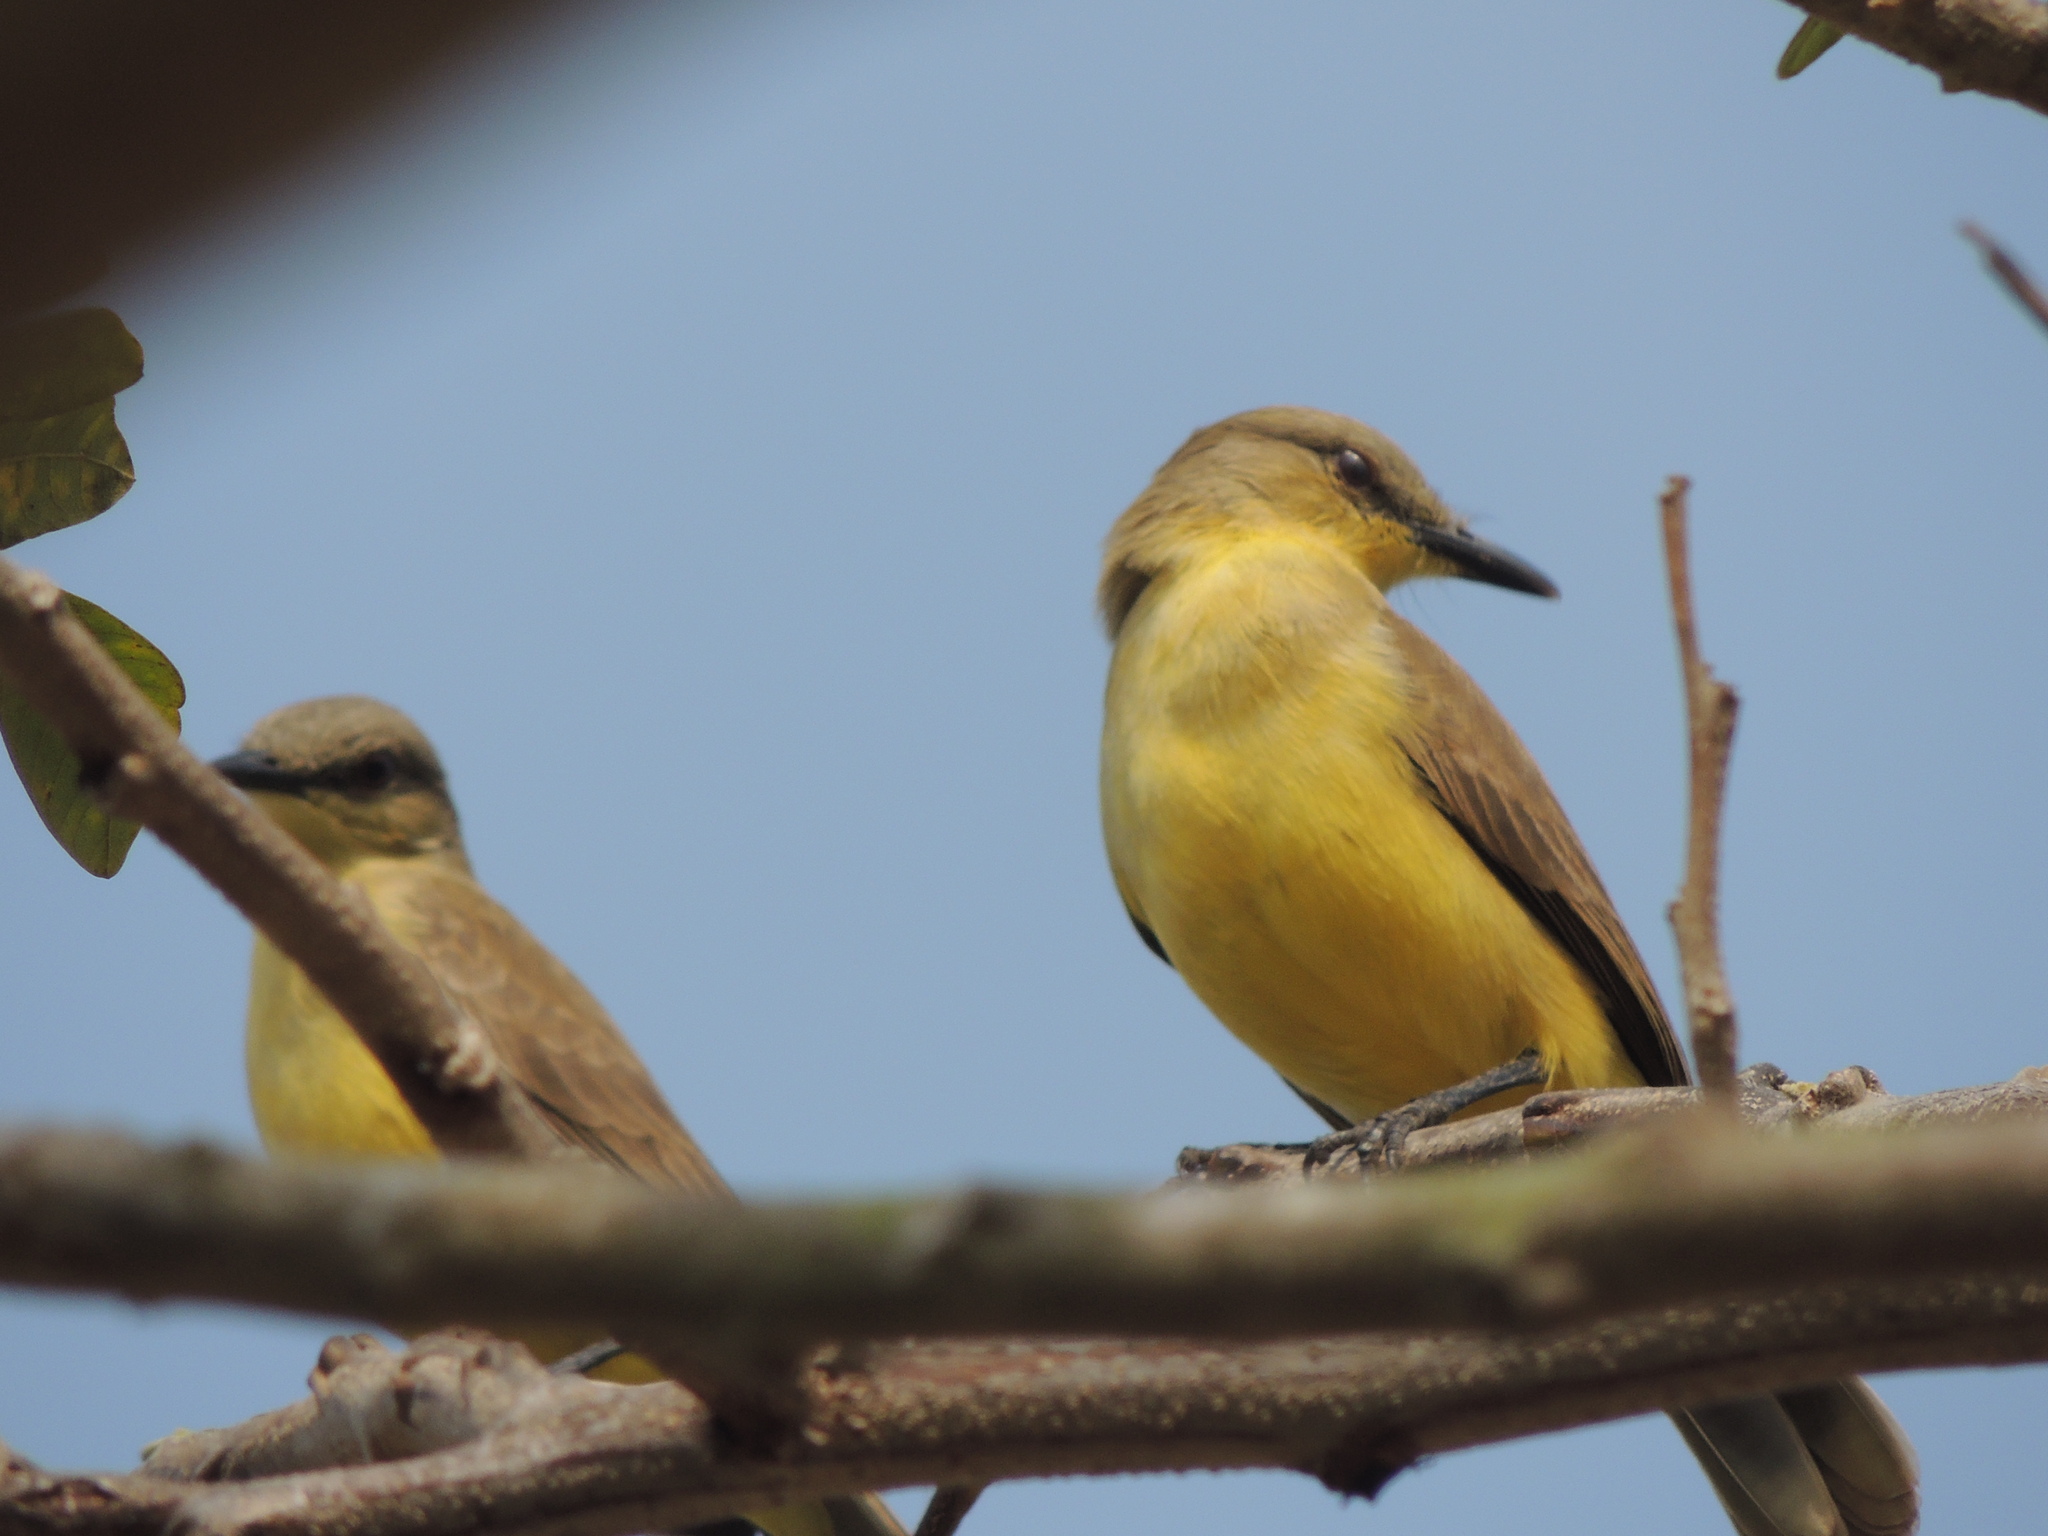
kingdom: Animalia
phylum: Chordata
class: Aves
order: Passeriformes
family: Tyrannidae
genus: Machetornis
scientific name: Machetornis rixosa
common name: Cattle tyrant
